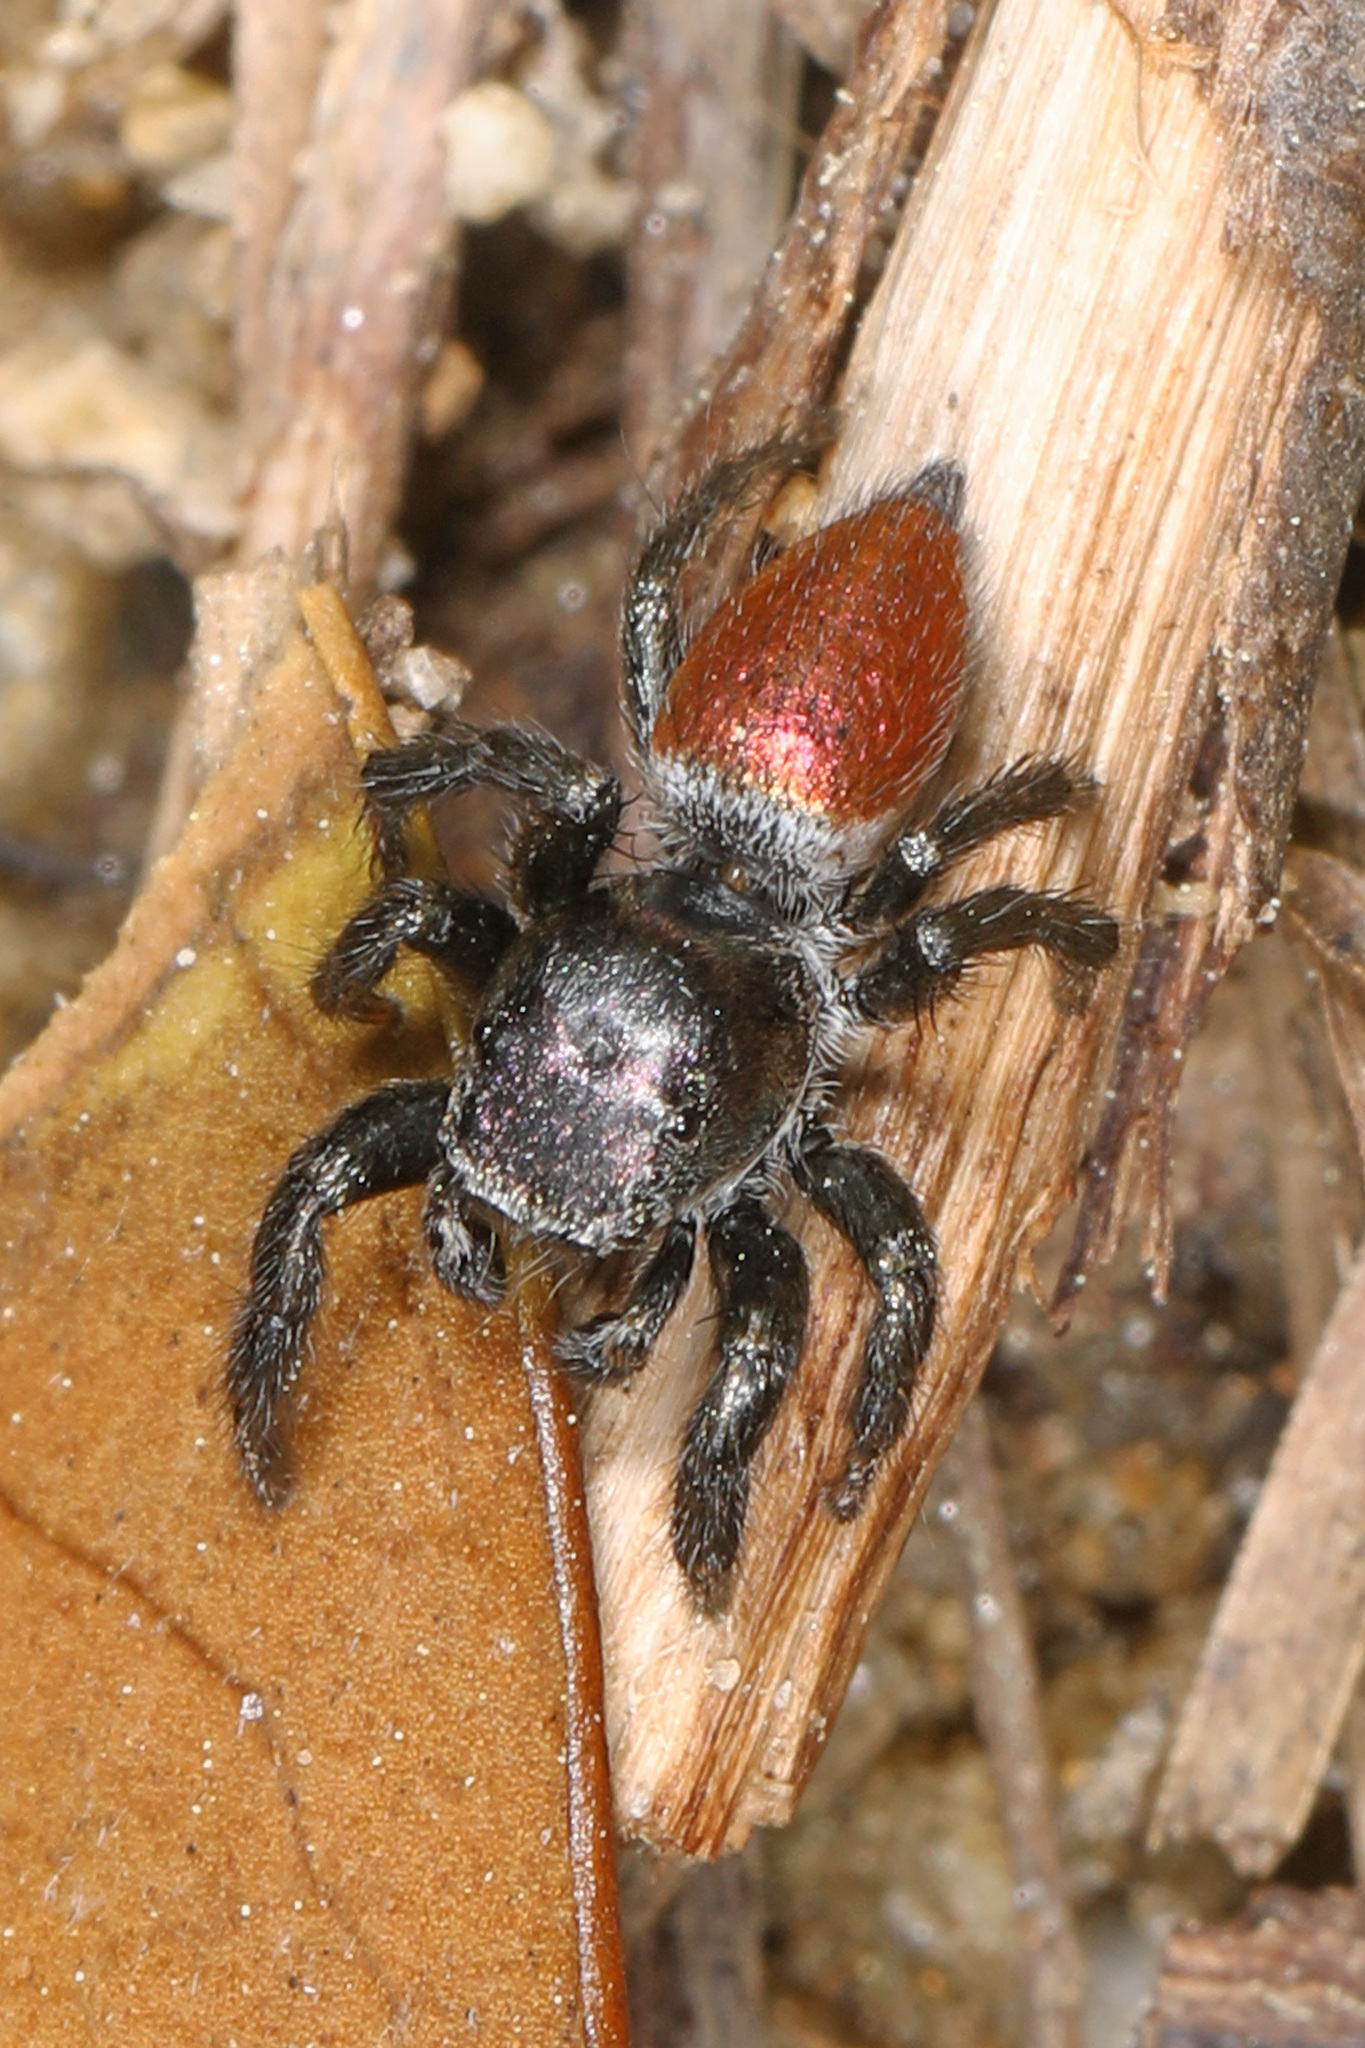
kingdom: Animalia
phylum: Arthropoda
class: Arachnida
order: Araneae
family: Salticidae
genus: Habronattus
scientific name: Habronattus decorus
